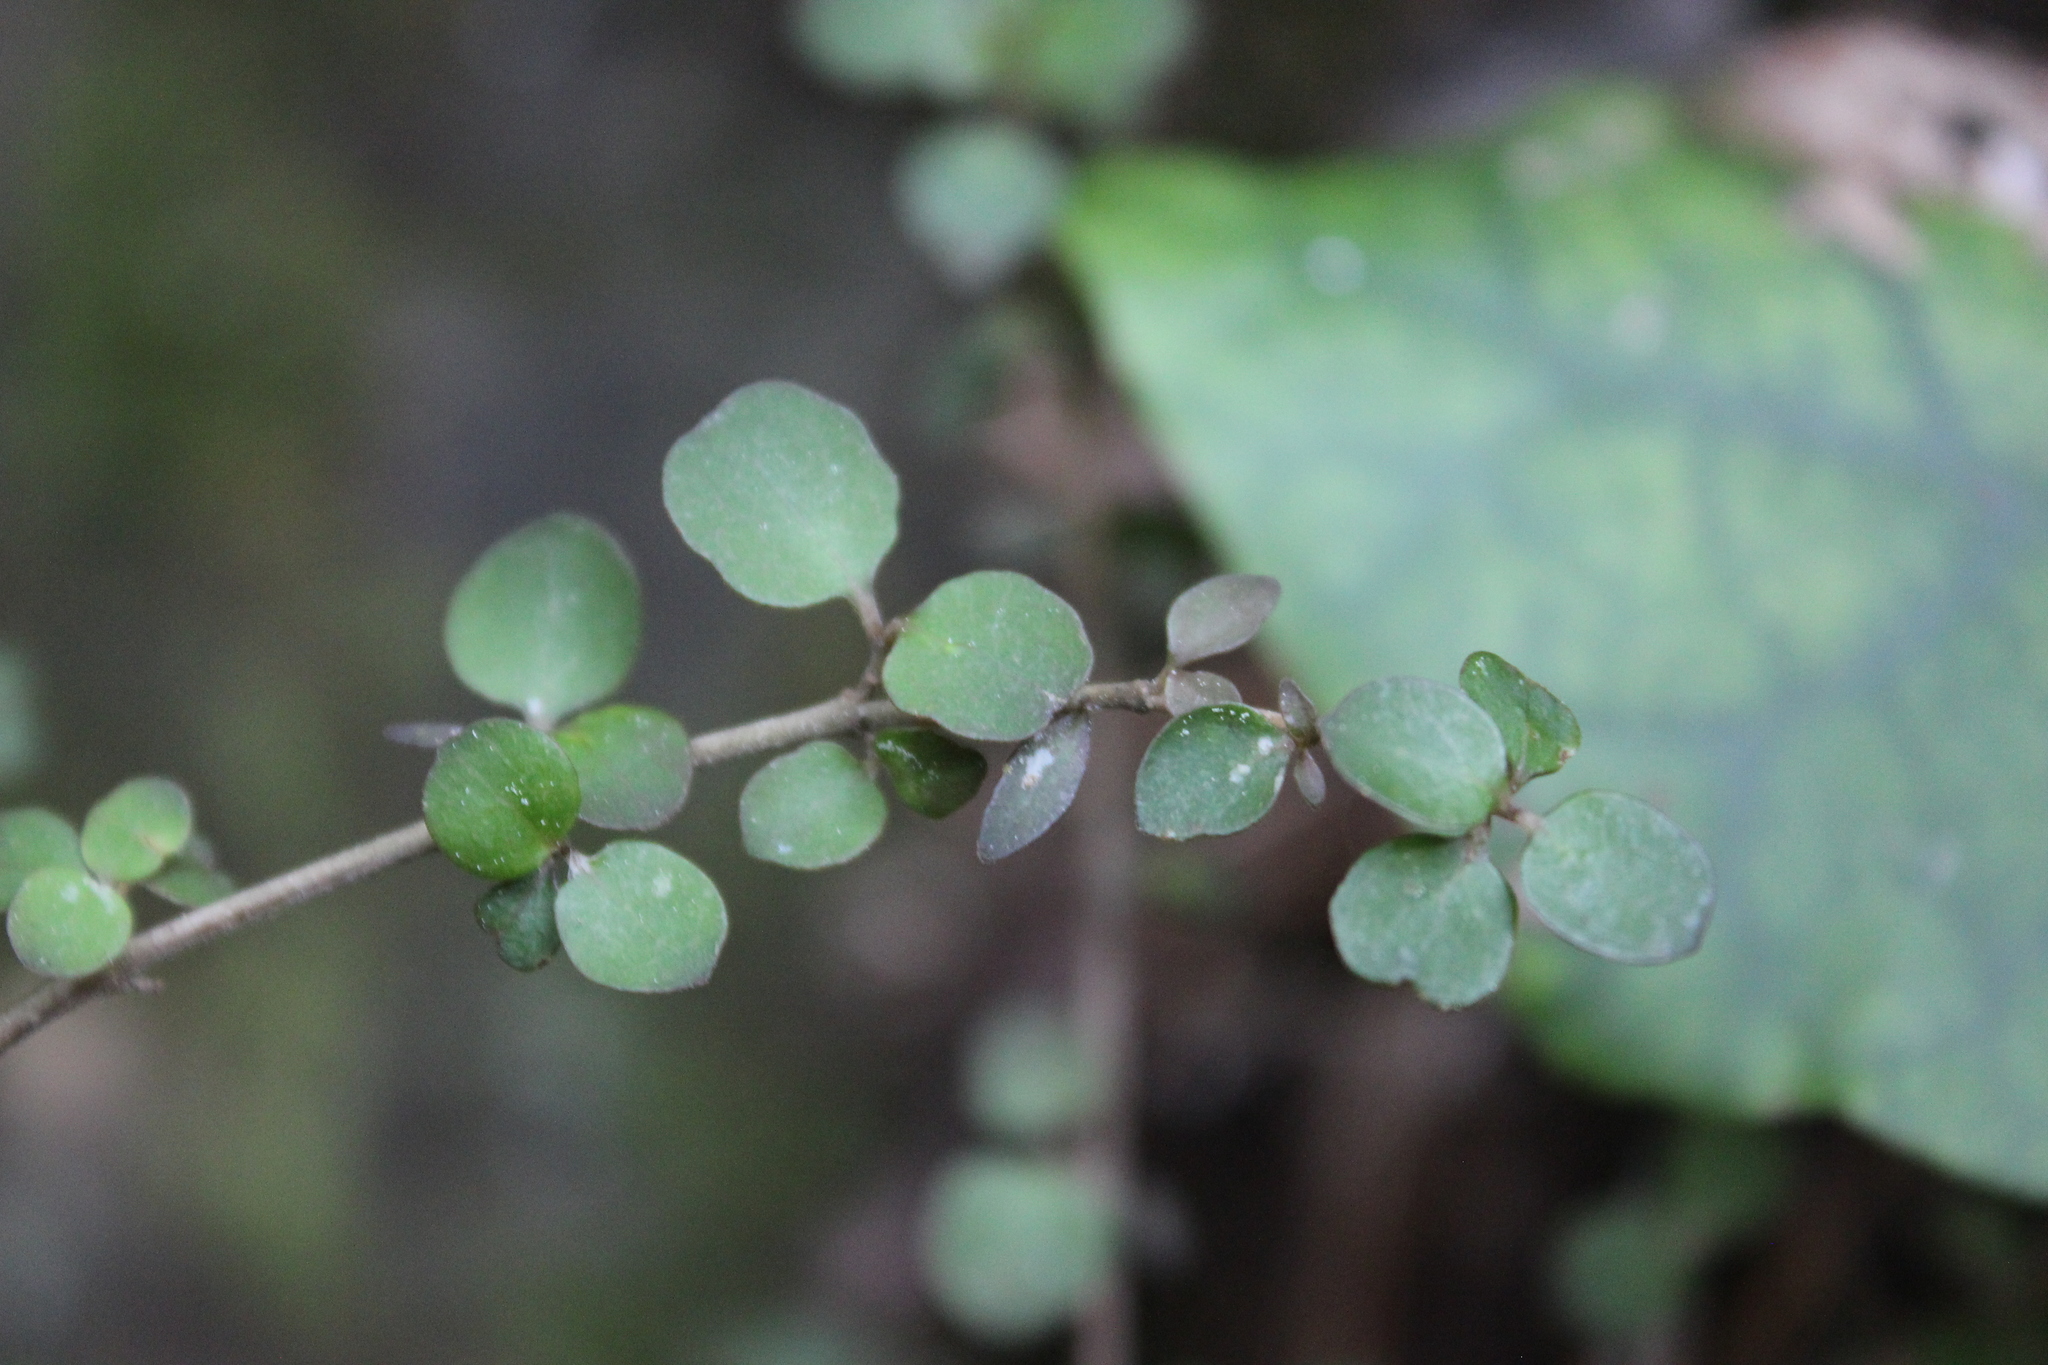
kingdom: Plantae
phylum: Tracheophyta
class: Magnoliopsida
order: Gentianales
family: Rubiaceae
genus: Coprosma
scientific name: Coprosma rhamnoides
